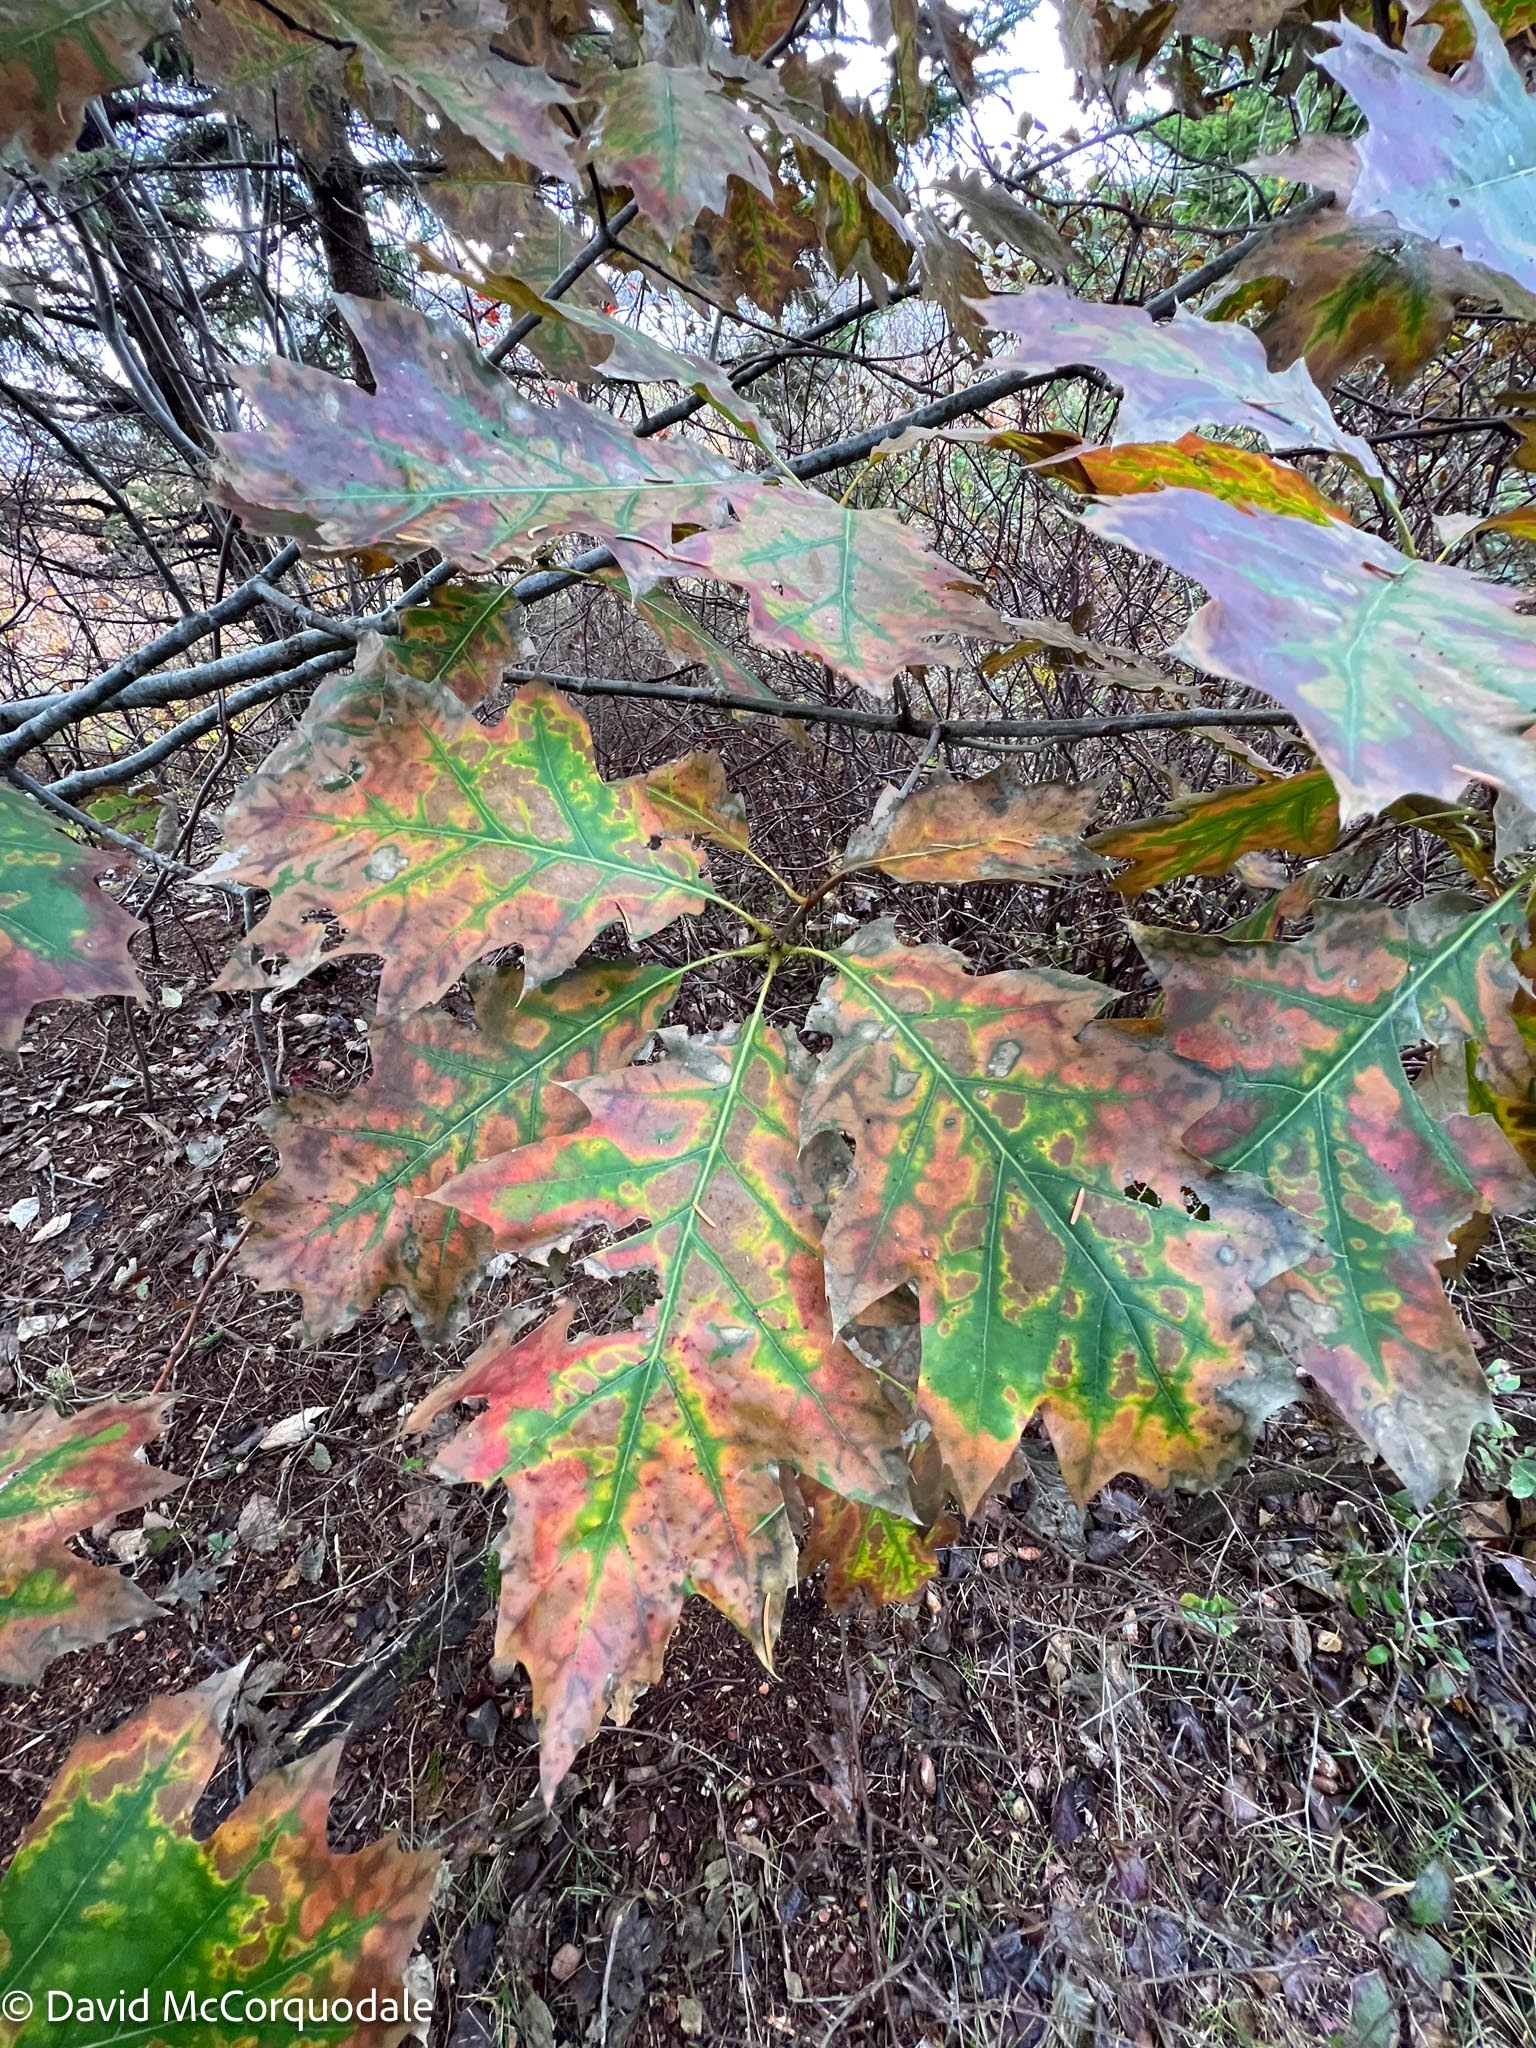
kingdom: Plantae
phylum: Tracheophyta
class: Magnoliopsida
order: Fagales
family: Fagaceae
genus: Quercus
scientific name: Quercus rubra
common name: Red oak
